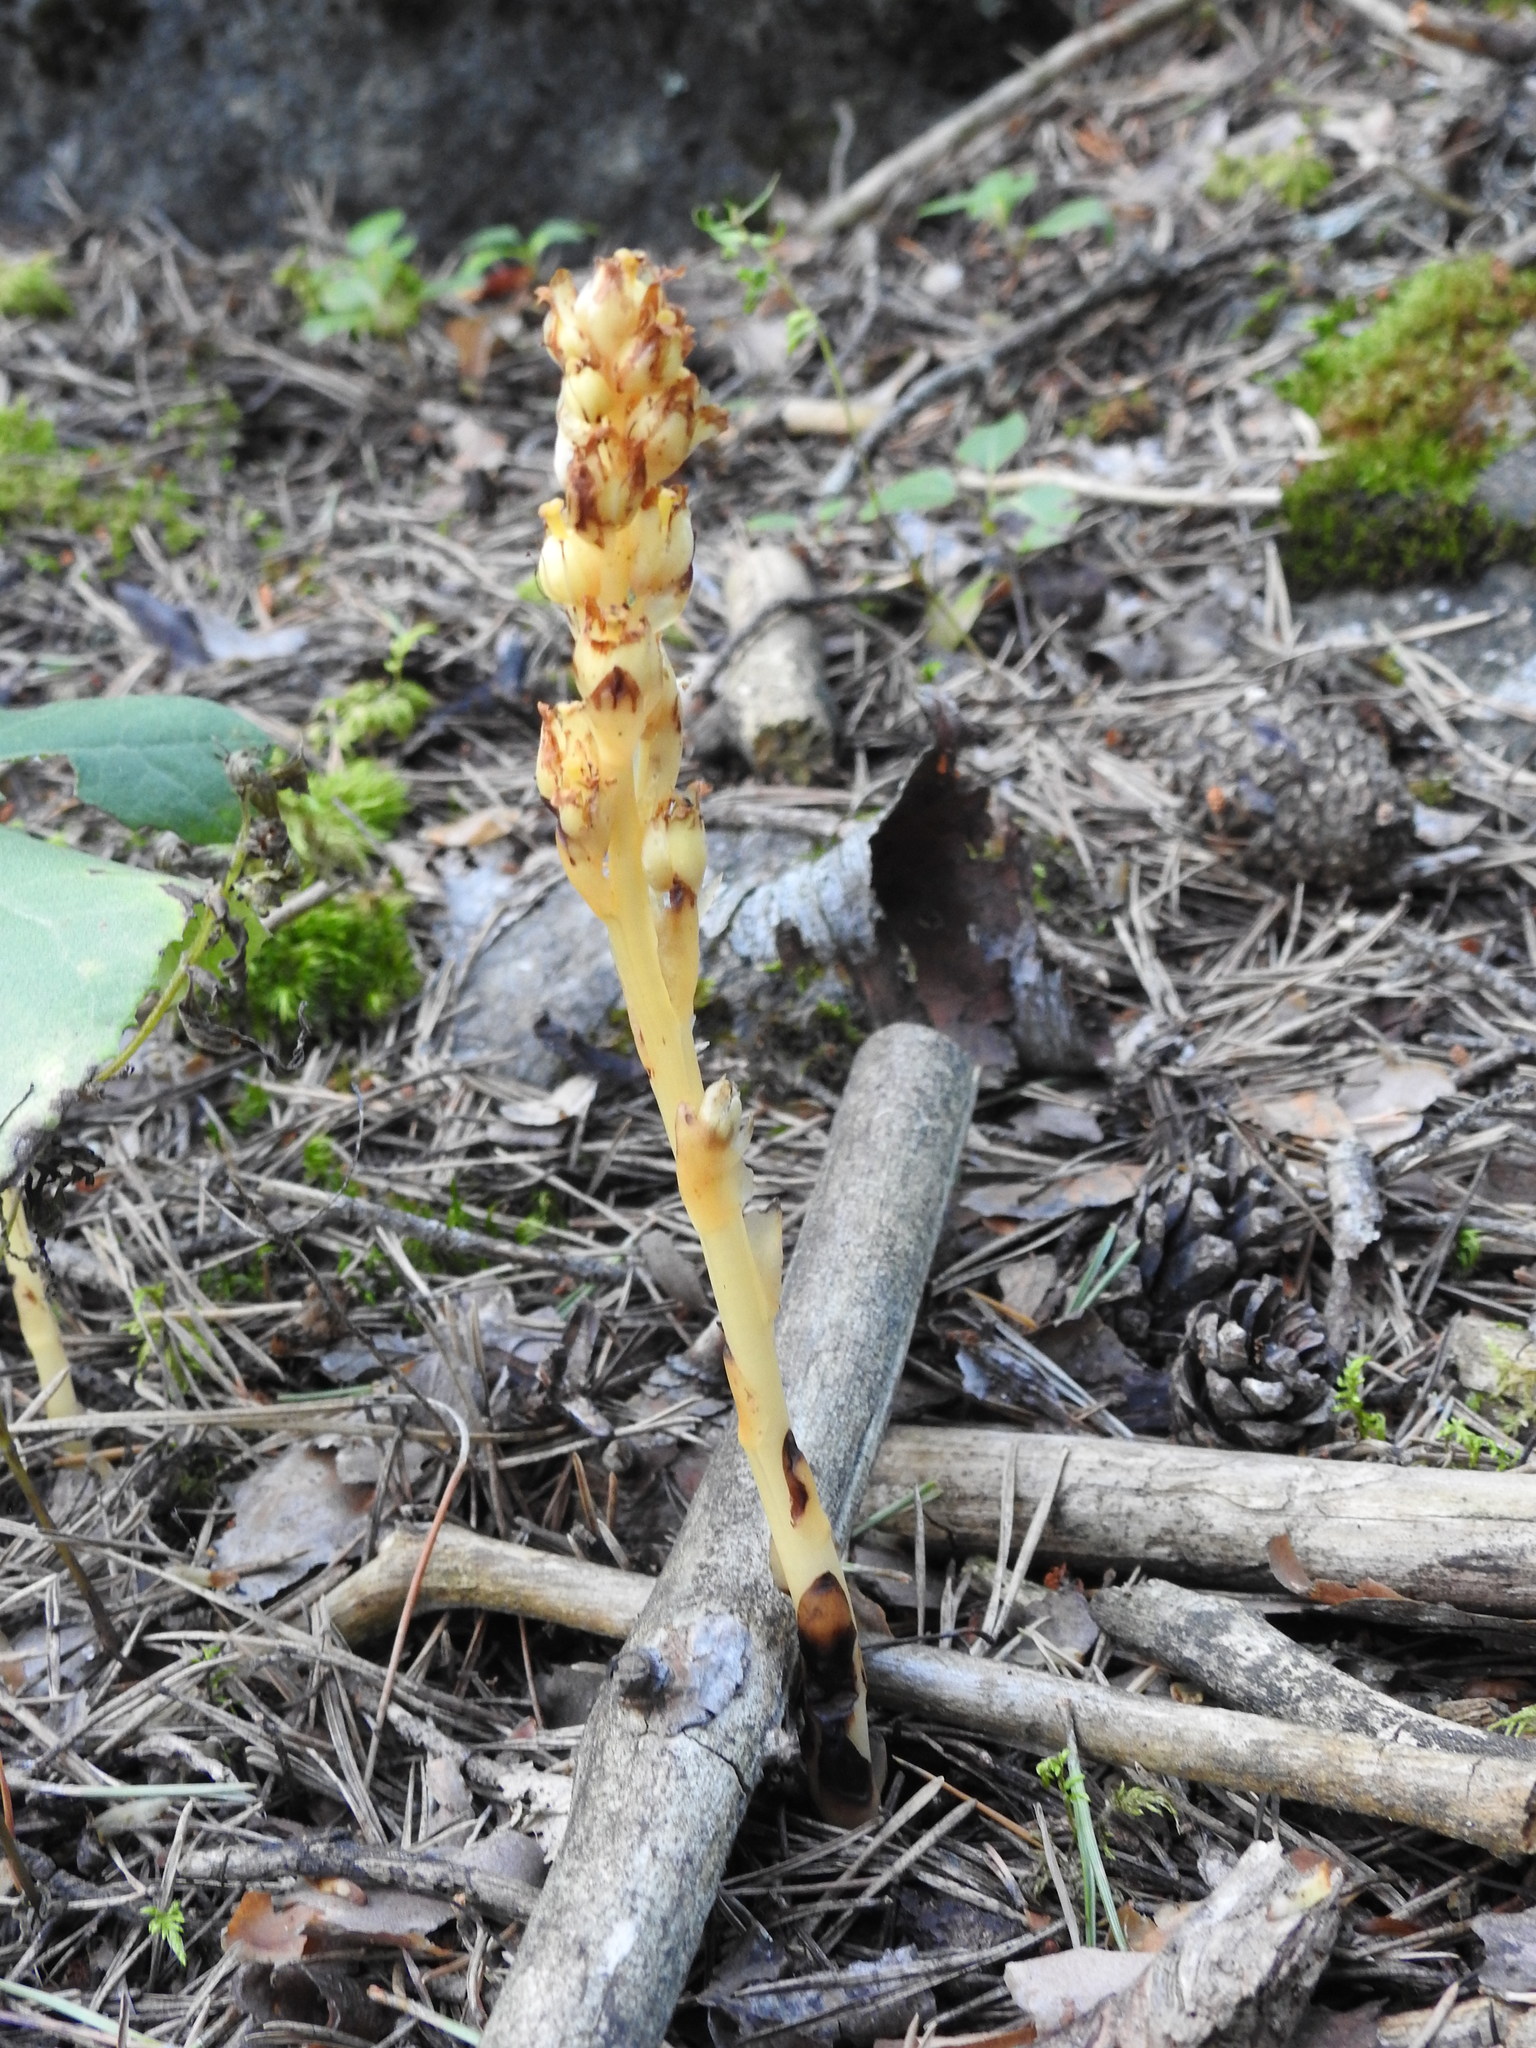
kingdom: Plantae
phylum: Tracheophyta
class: Magnoliopsida
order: Ericales
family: Ericaceae
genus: Hypopitys
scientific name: Hypopitys monotropa
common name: Yellow bird's-nest
